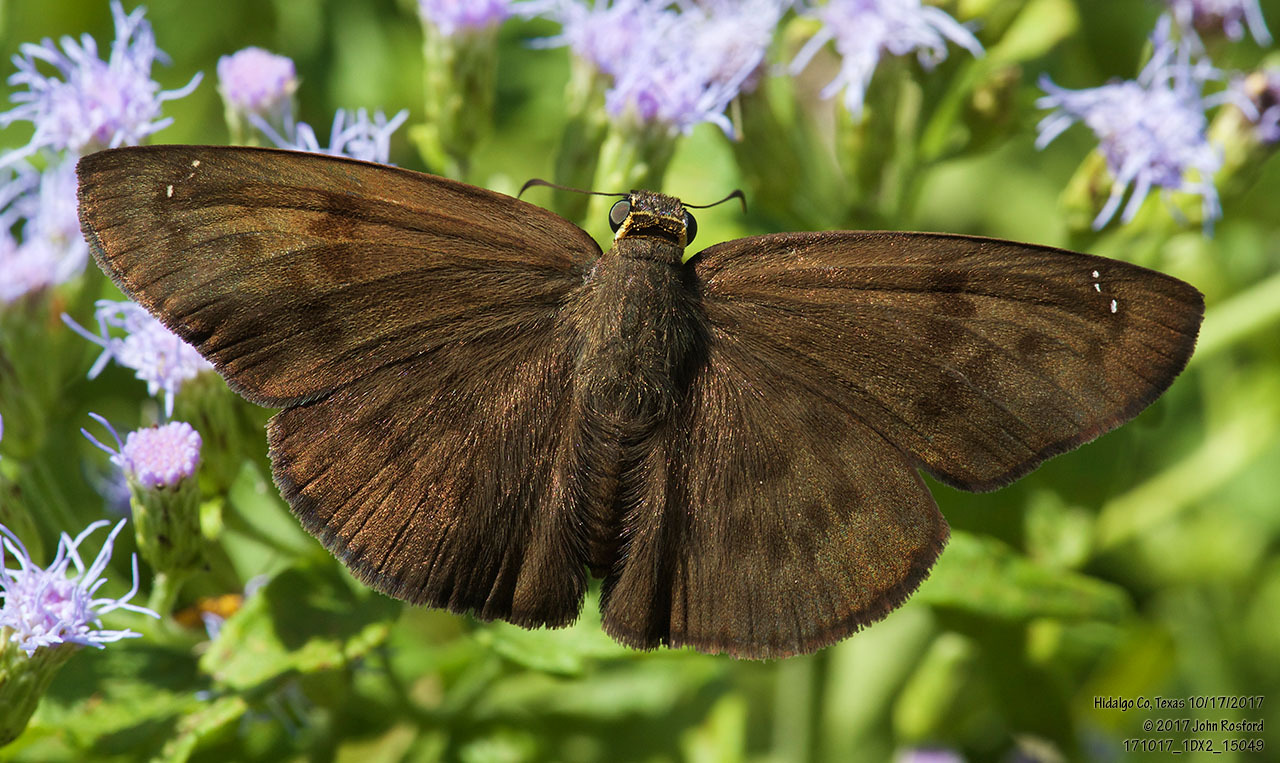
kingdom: Animalia
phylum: Arthropoda
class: Insecta
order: Lepidoptera
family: Hesperiidae
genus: Grais
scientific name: Grais stigmaticus
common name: Hermit skipper
